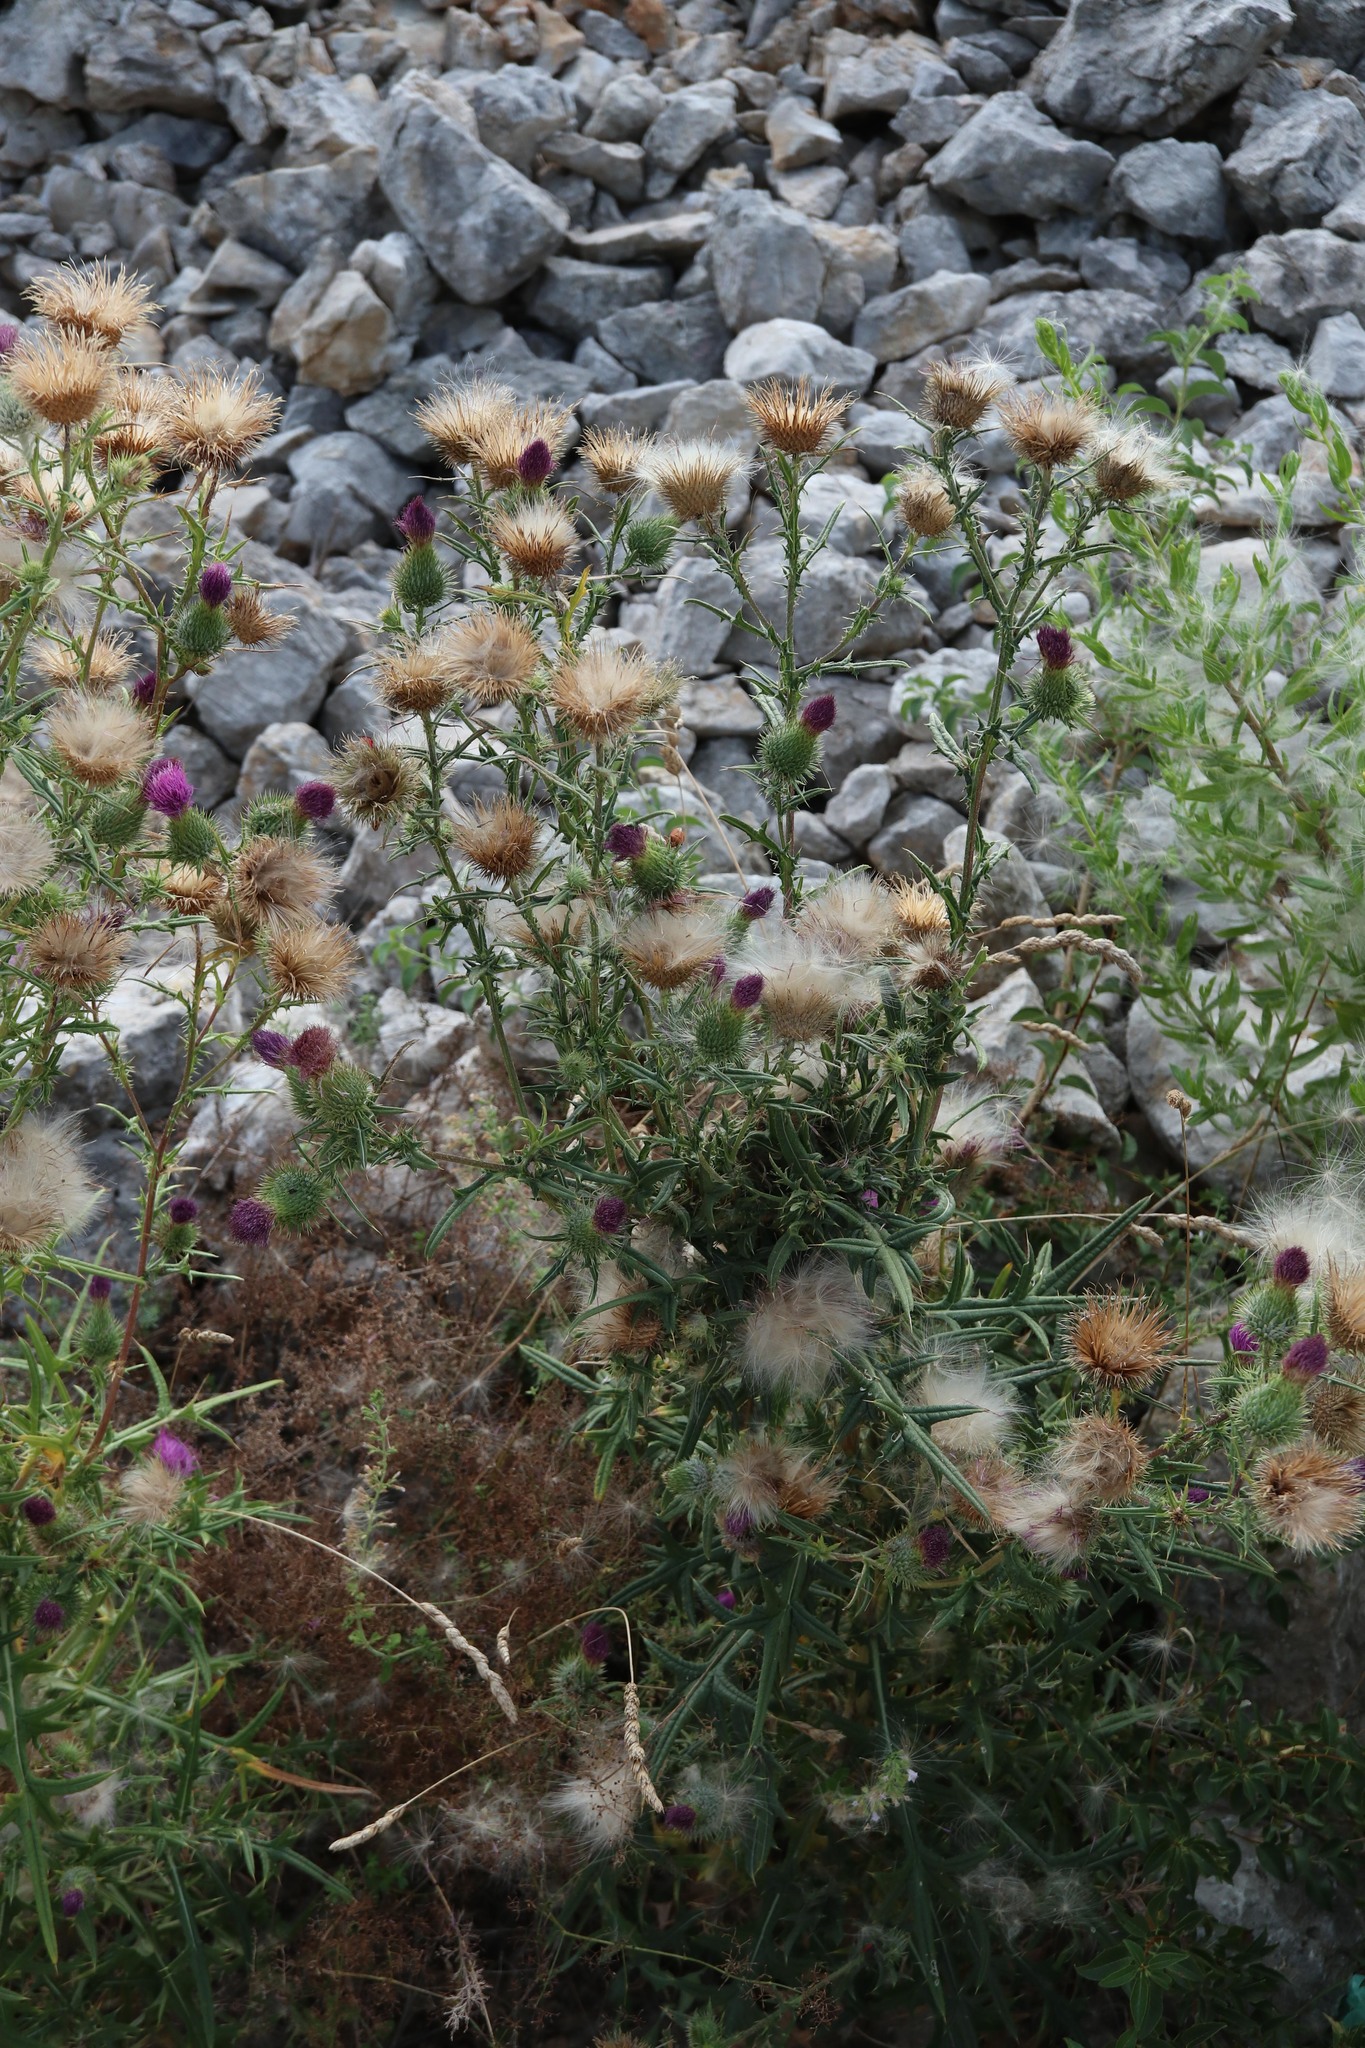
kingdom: Plantae
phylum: Tracheophyta
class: Magnoliopsida
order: Asterales
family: Asteraceae
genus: Cirsium
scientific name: Cirsium vulgare
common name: Bull thistle
